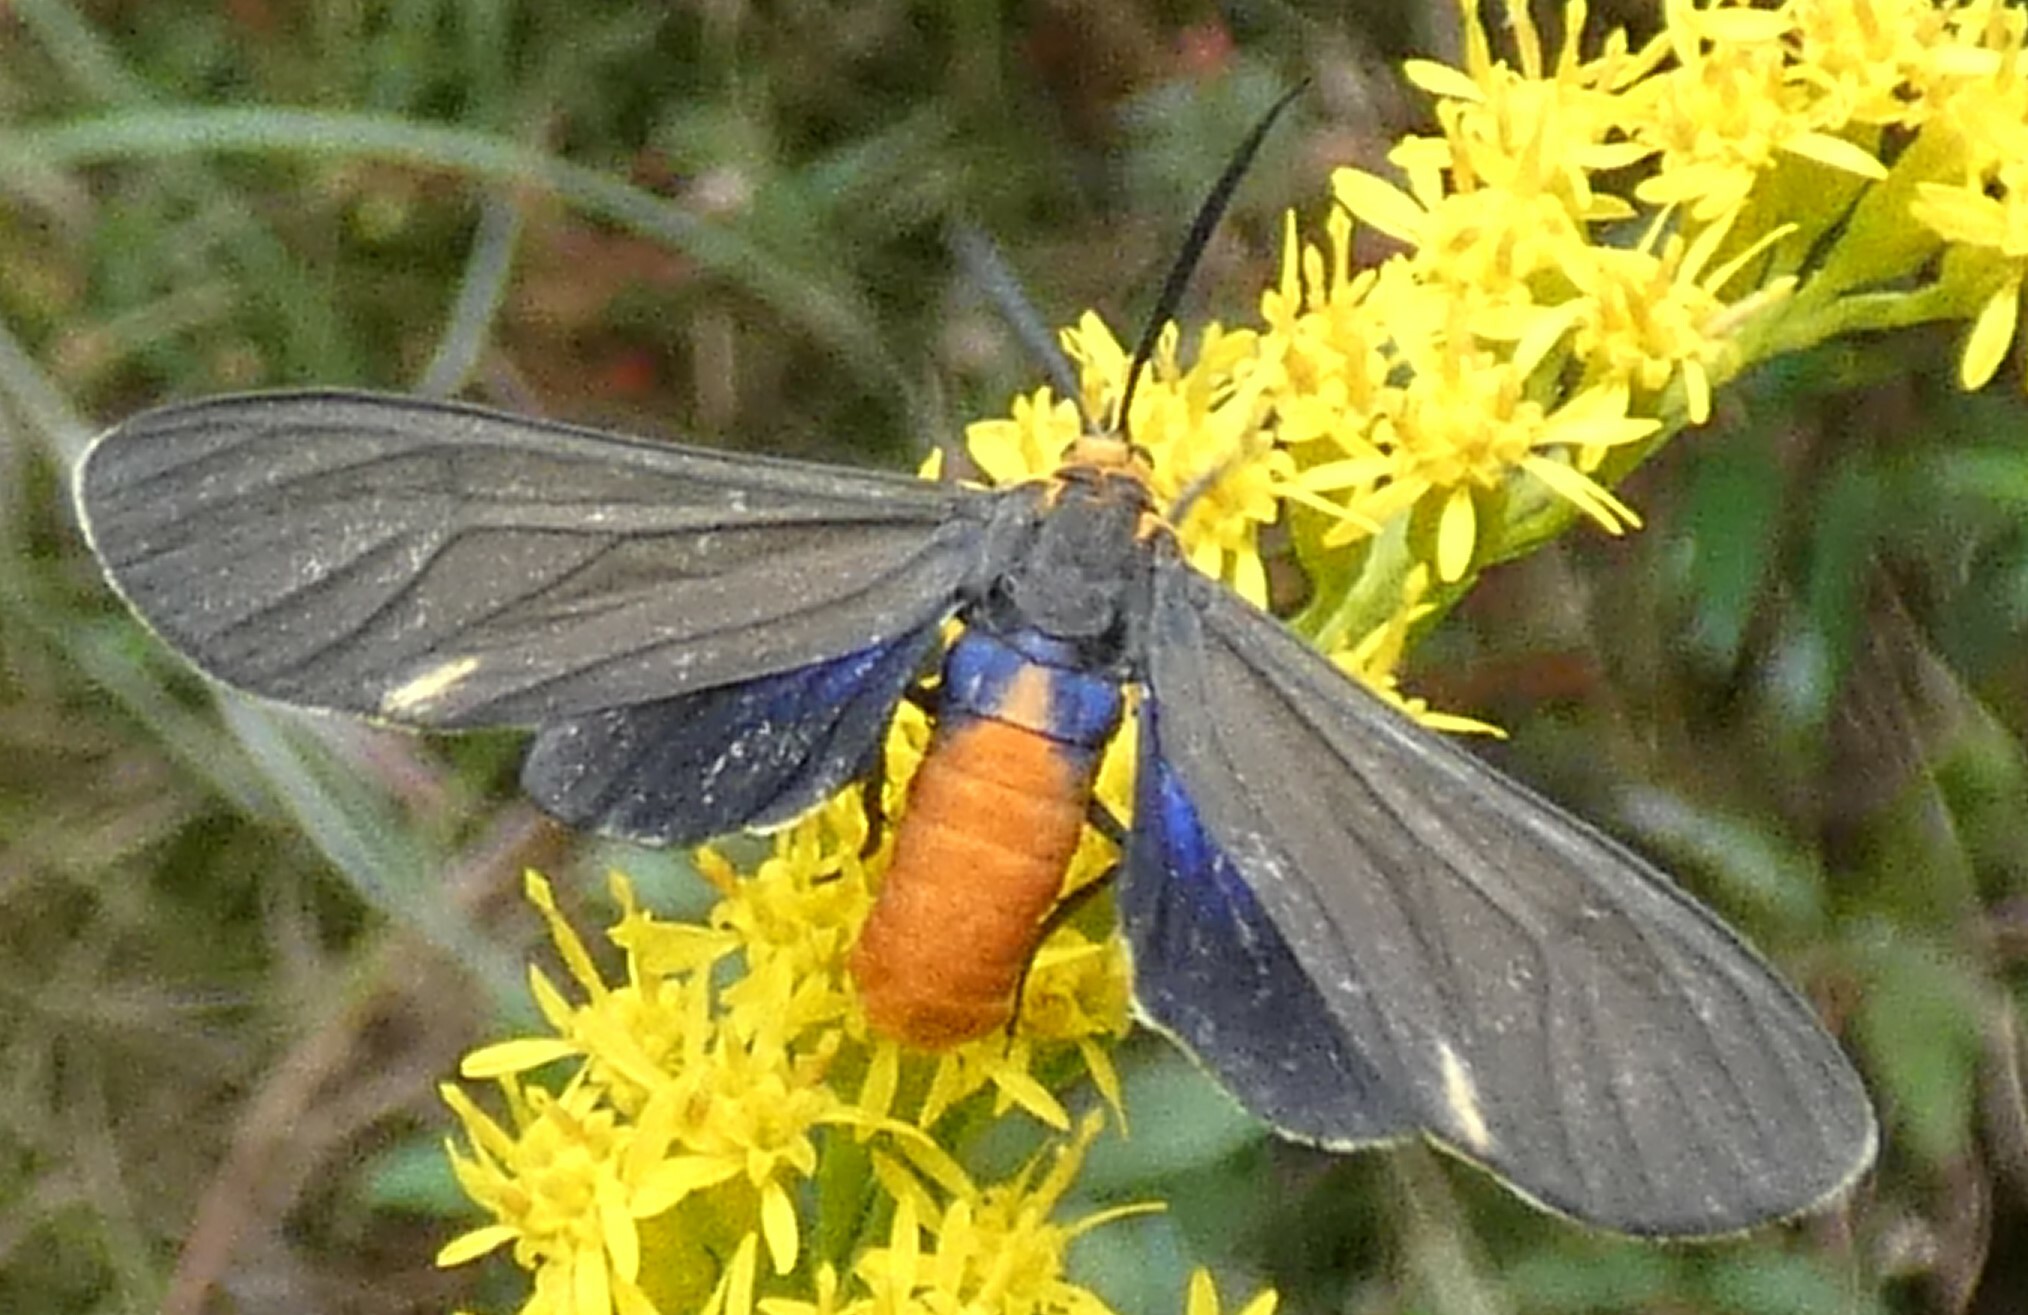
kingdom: Animalia
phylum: Arthropoda
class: Insecta
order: Lepidoptera
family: Erebidae
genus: Dahana
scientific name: Dahana atripennis
